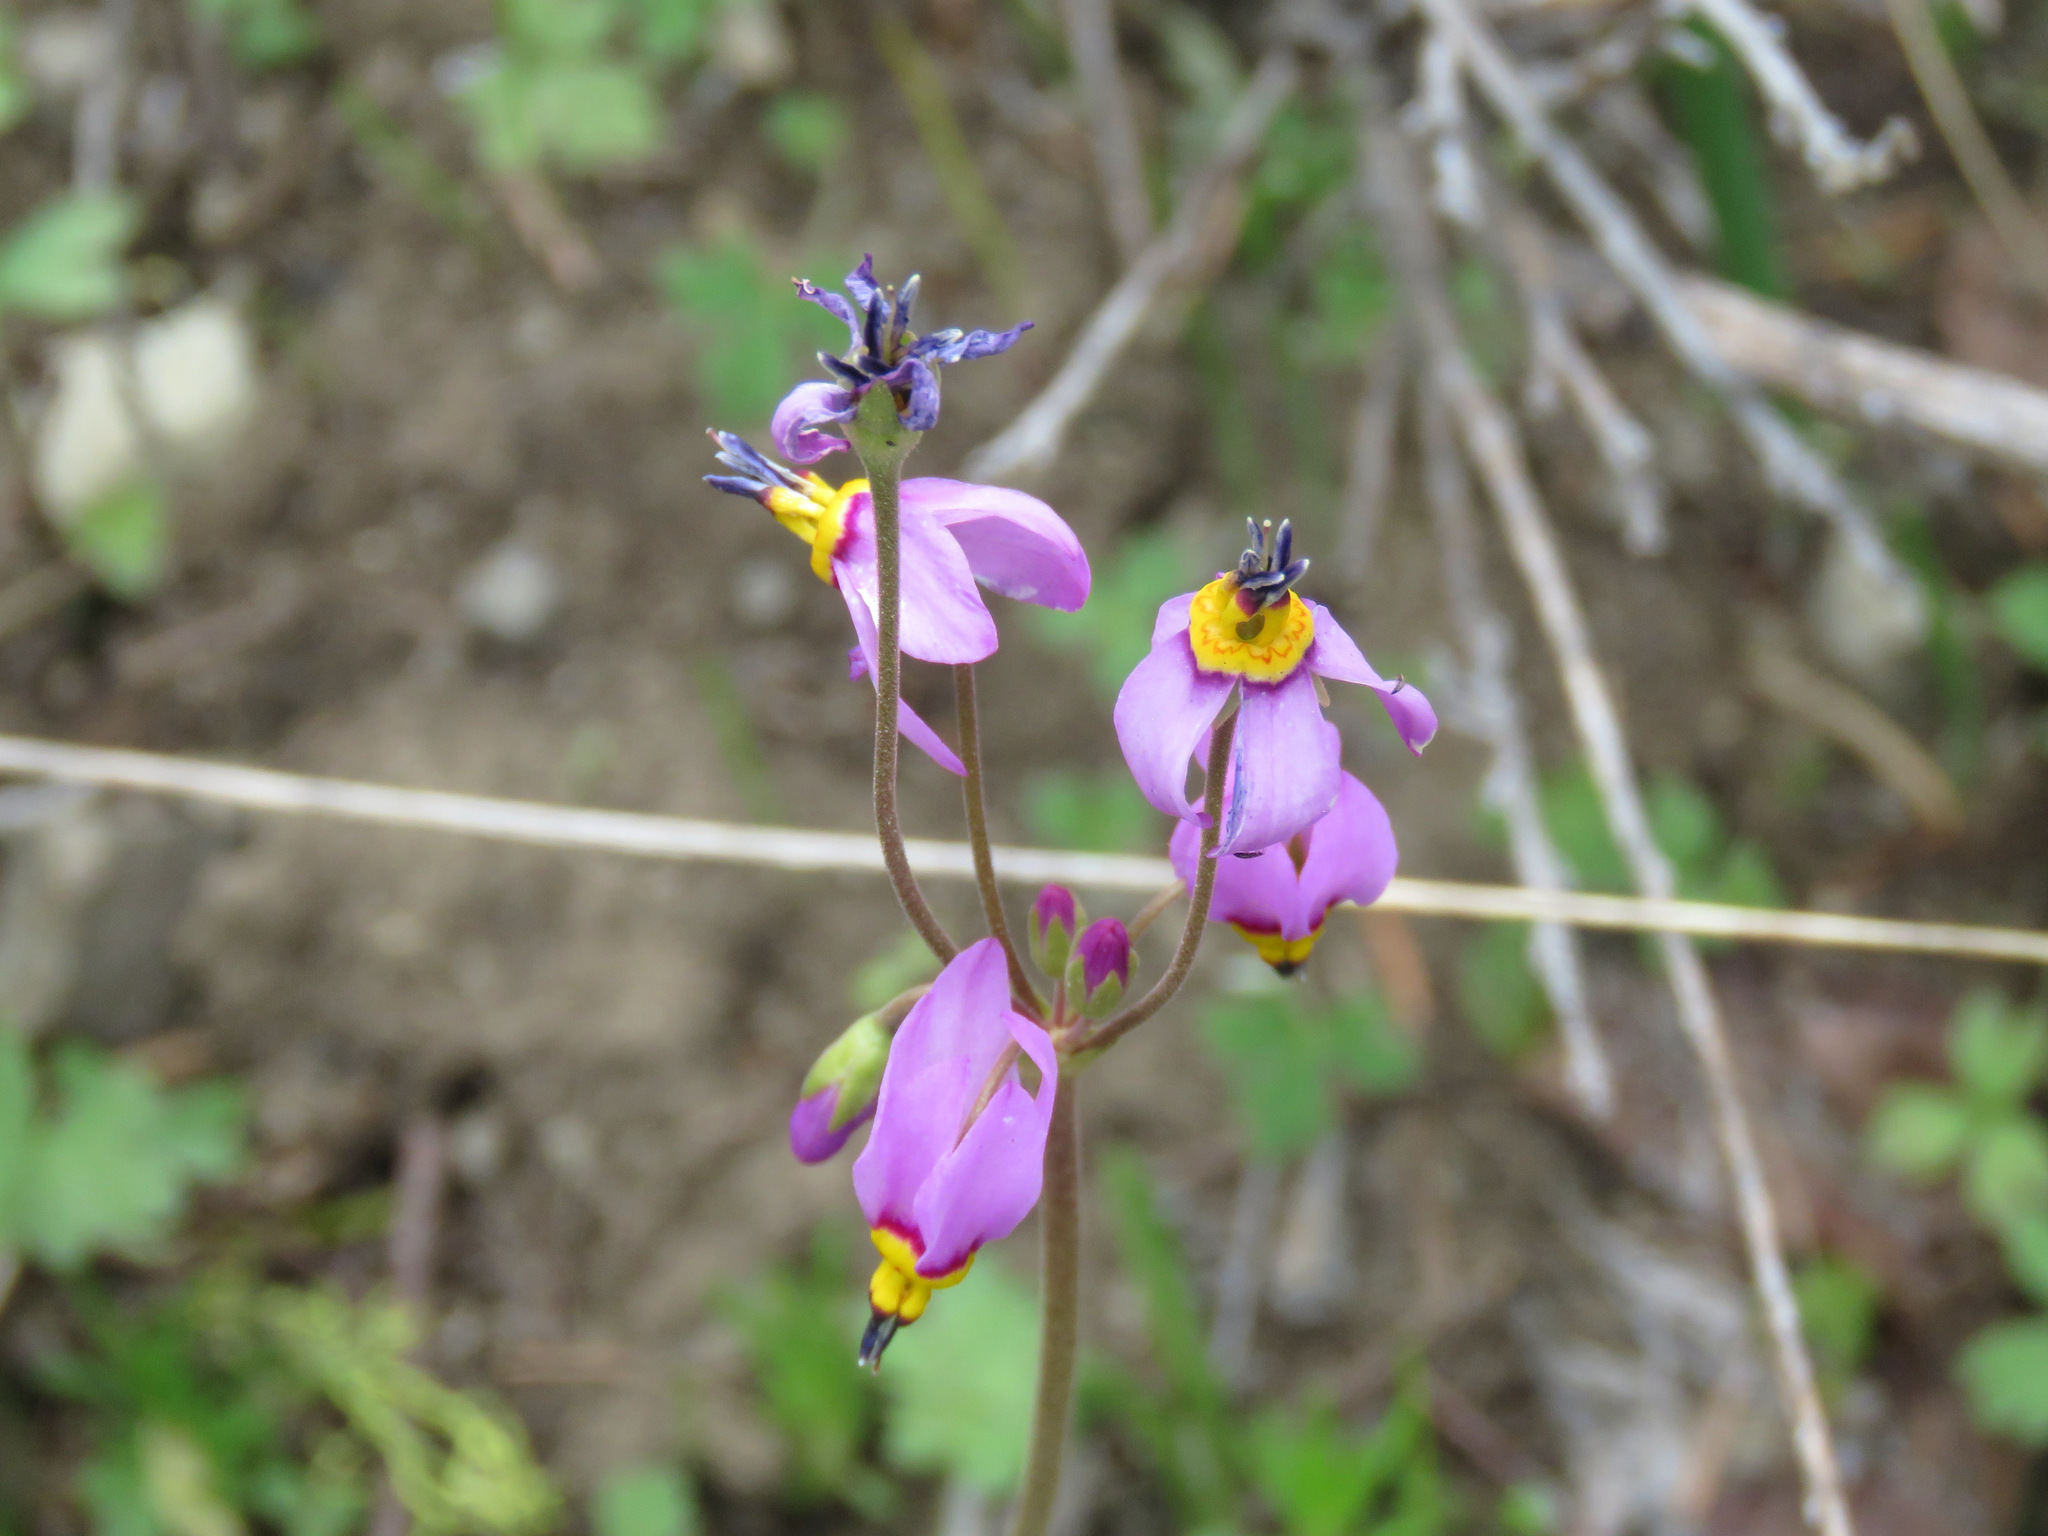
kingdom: Plantae
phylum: Tracheophyta
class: Magnoliopsida
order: Ericales
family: Primulaceae
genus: Dodecatheon
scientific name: Dodecatheon pulchellum
